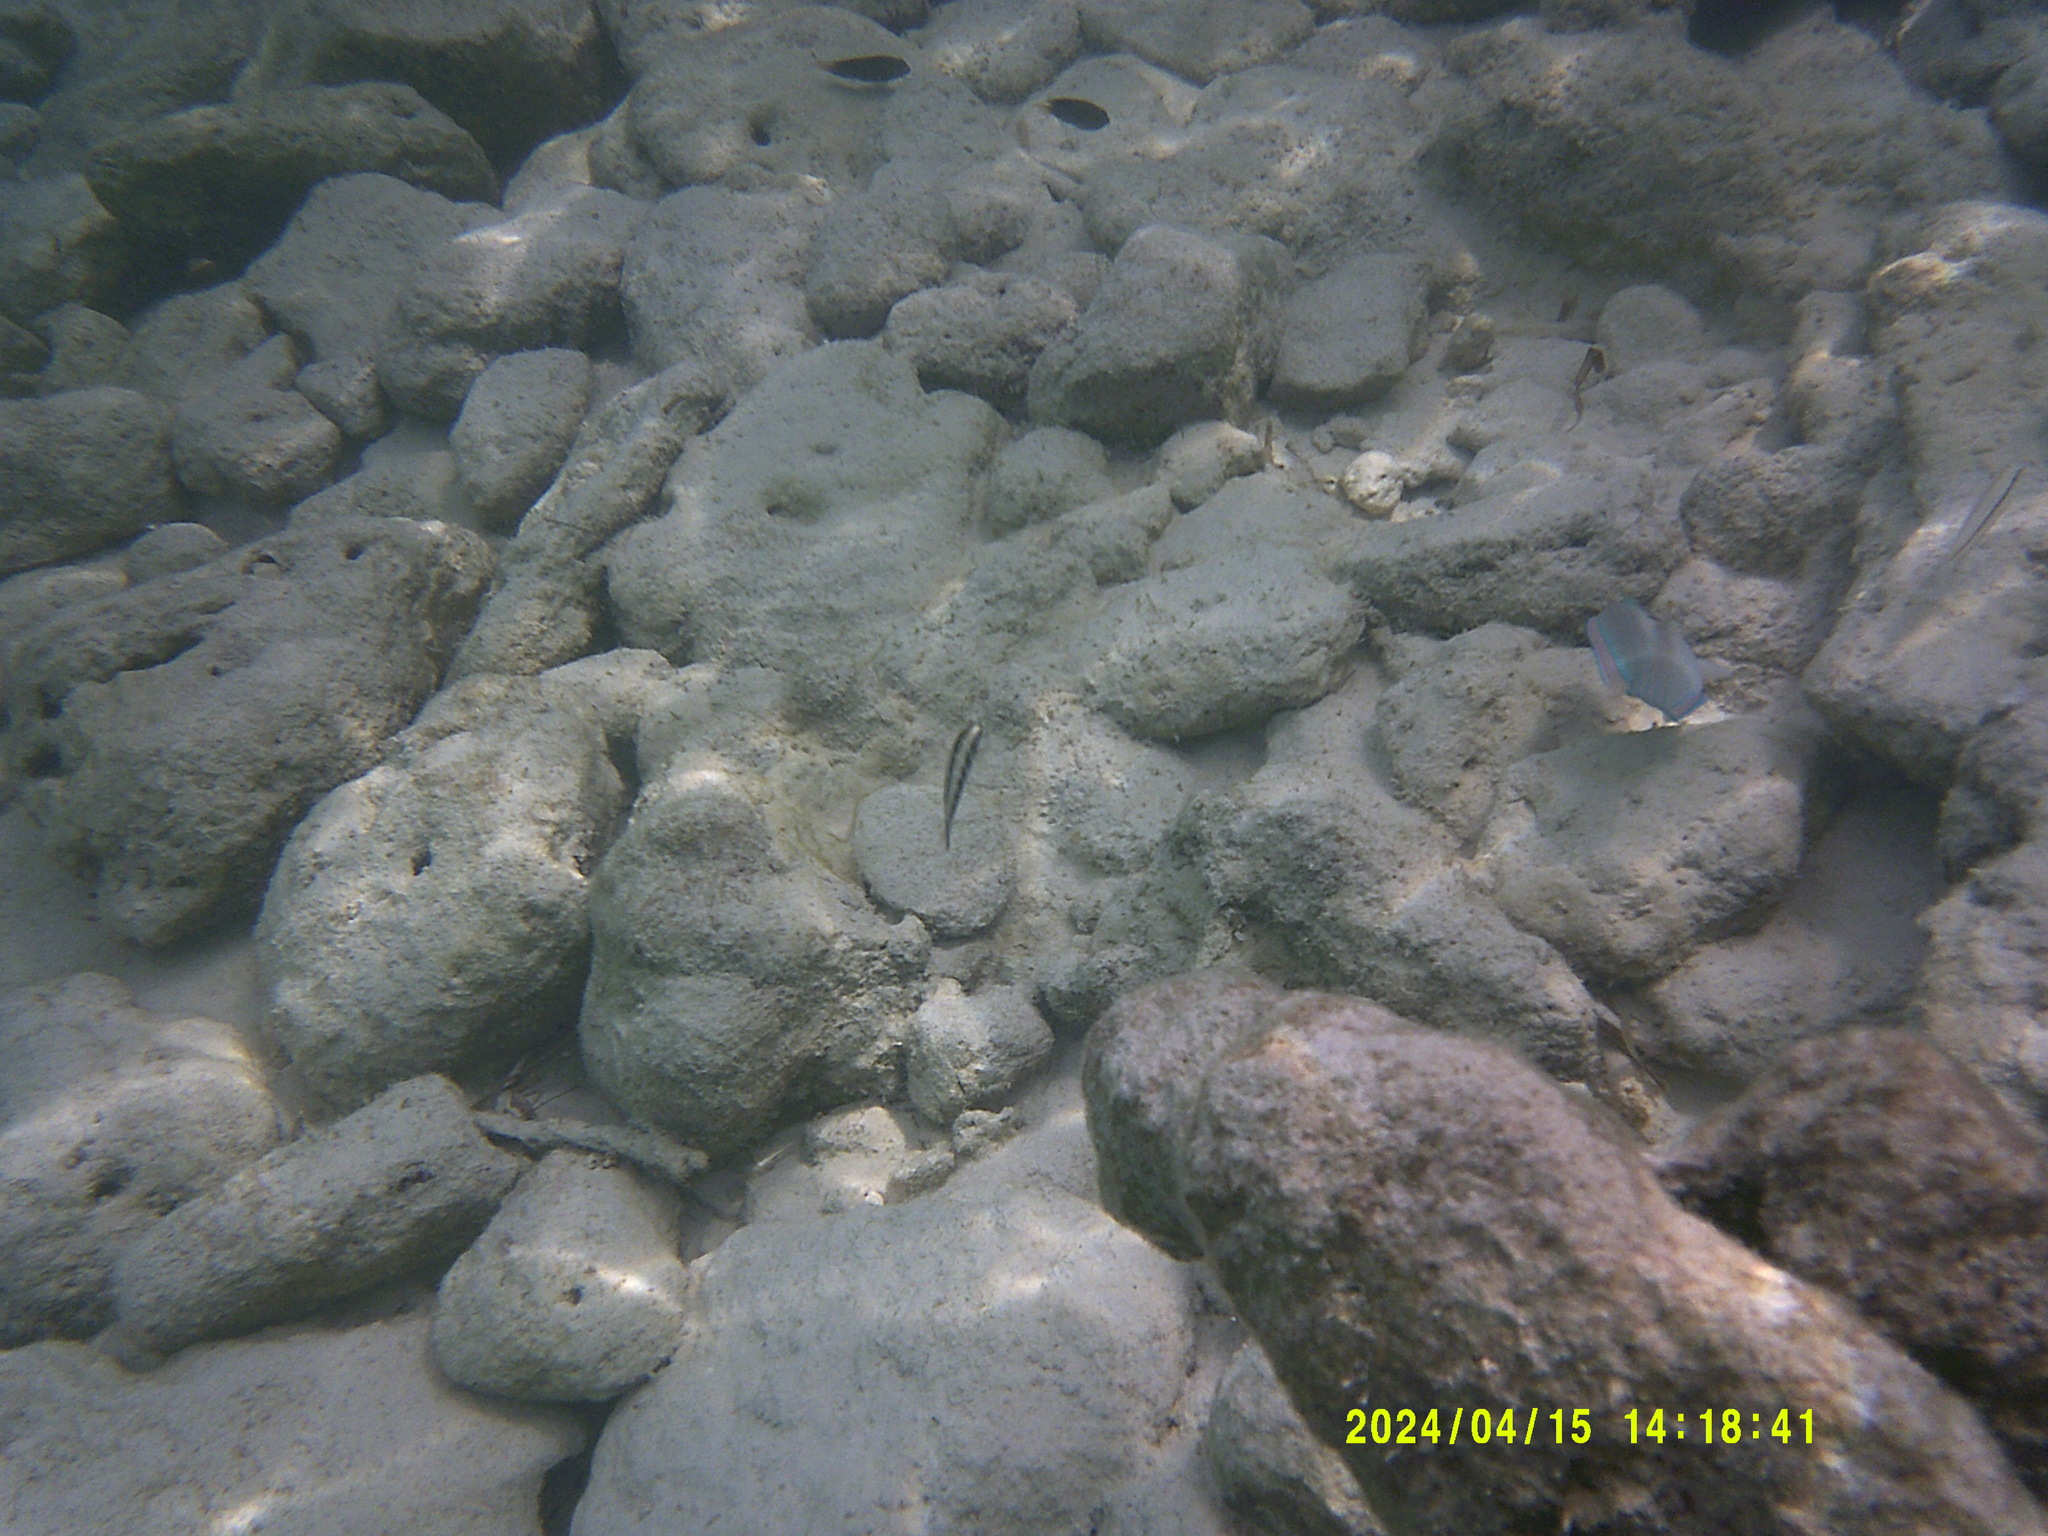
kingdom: Animalia
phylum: Chordata
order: Perciformes
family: Labridae
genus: Thalassoma
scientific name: Thalassoma bifasciatum
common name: Bluehead wrasse
